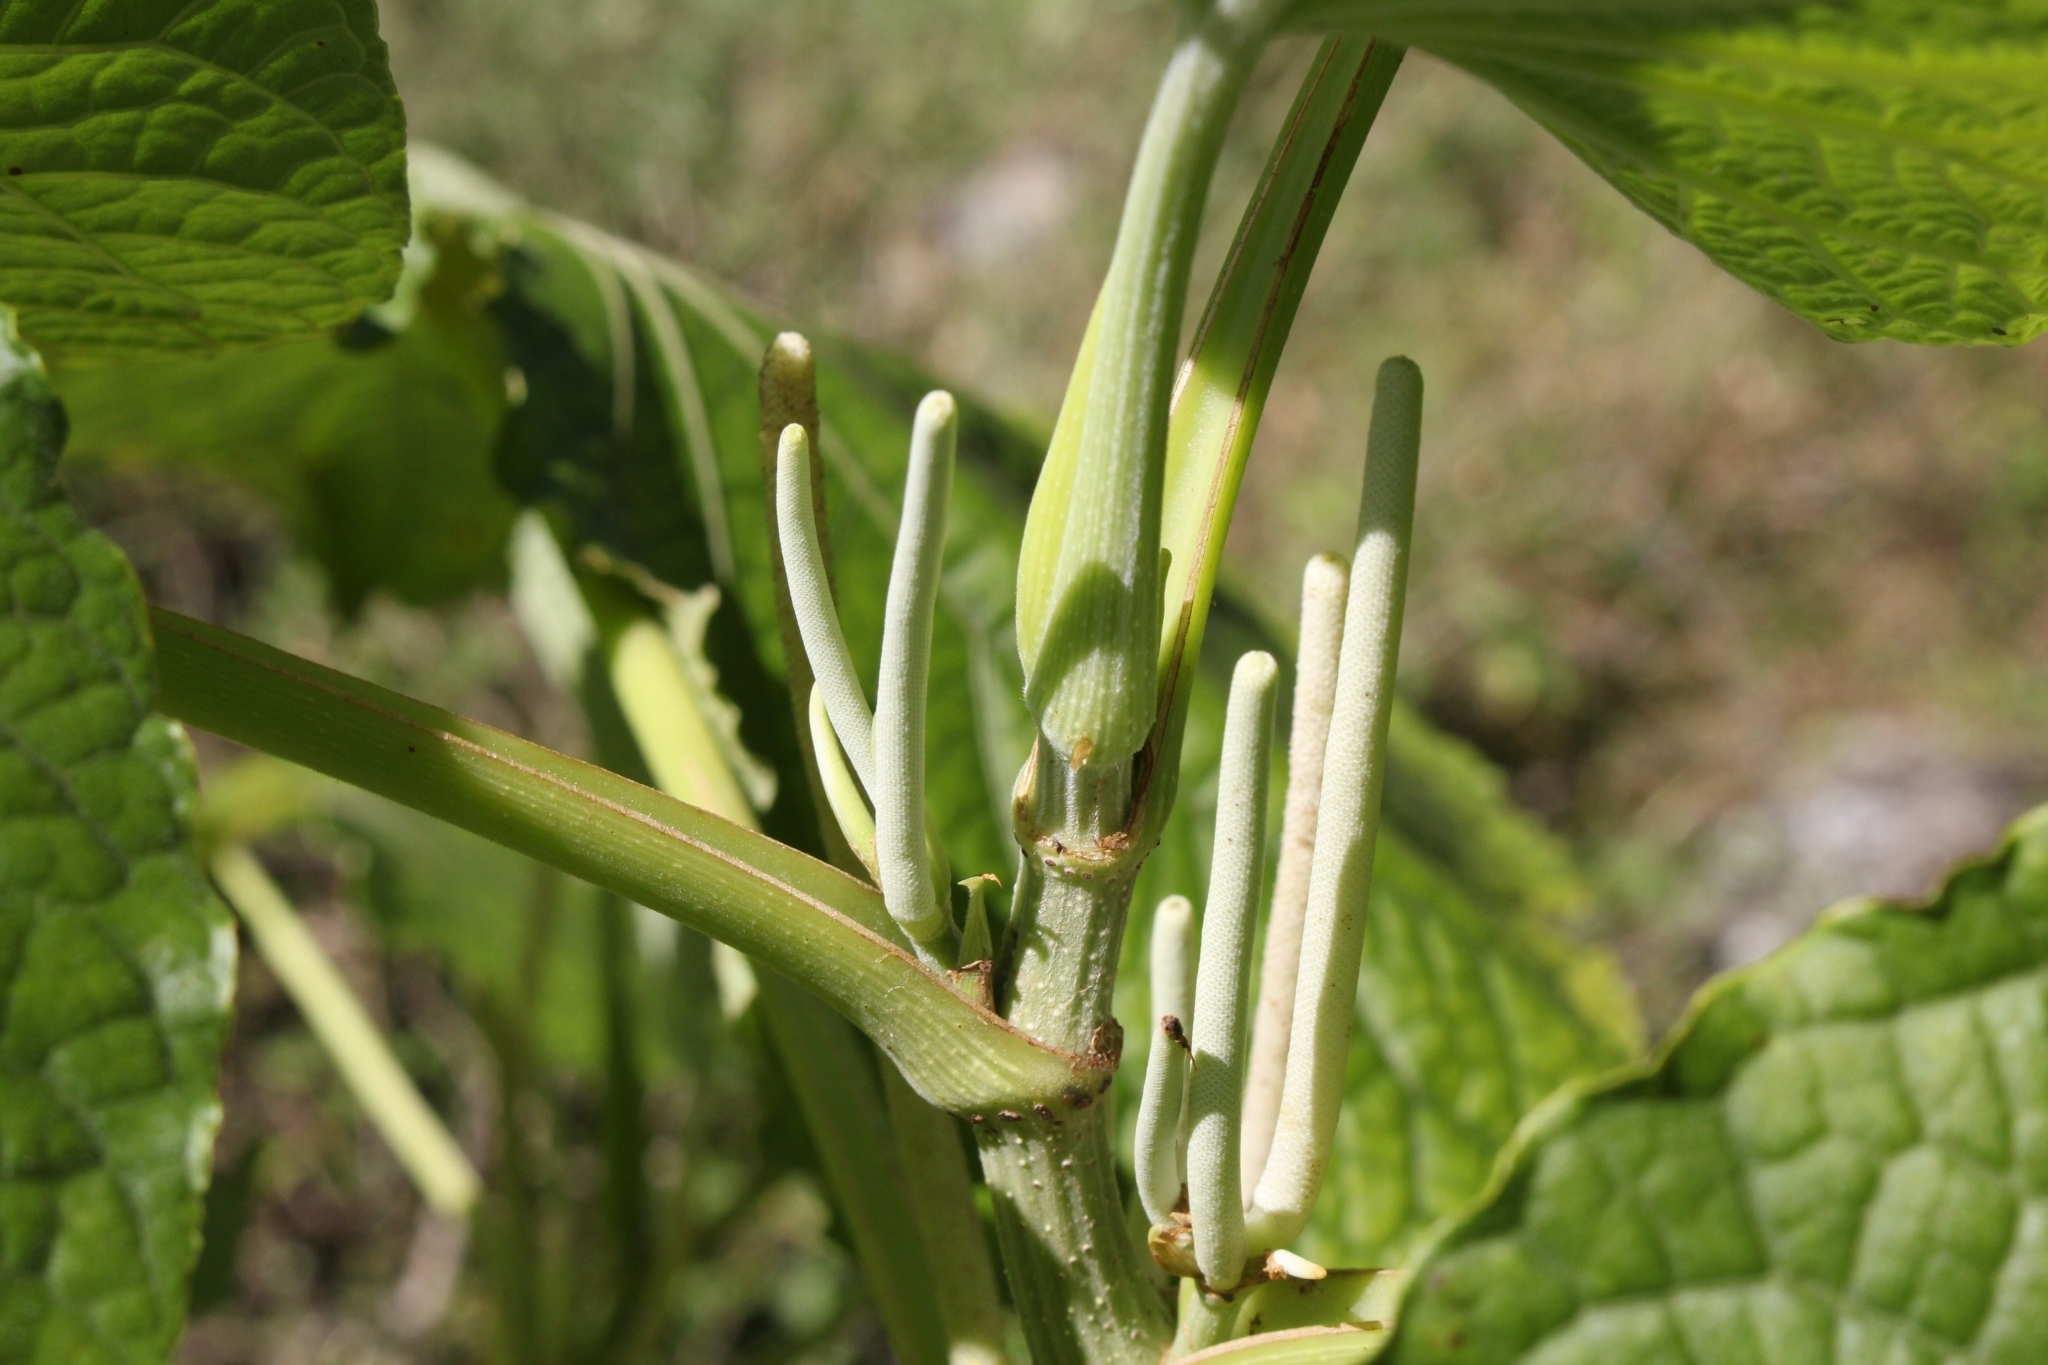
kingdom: Plantae
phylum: Tracheophyta
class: Magnoliopsida
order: Piperales
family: Piperaceae
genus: Piper
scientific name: Piper umbellatum
